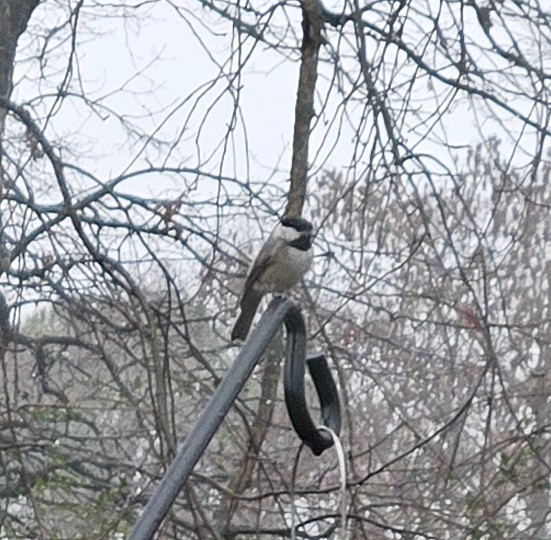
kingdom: Animalia
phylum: Chordata
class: Aves
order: Passeriformes
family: Paridae
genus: Poecile
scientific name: Poecile carolinensis
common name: Carolina chickadee
